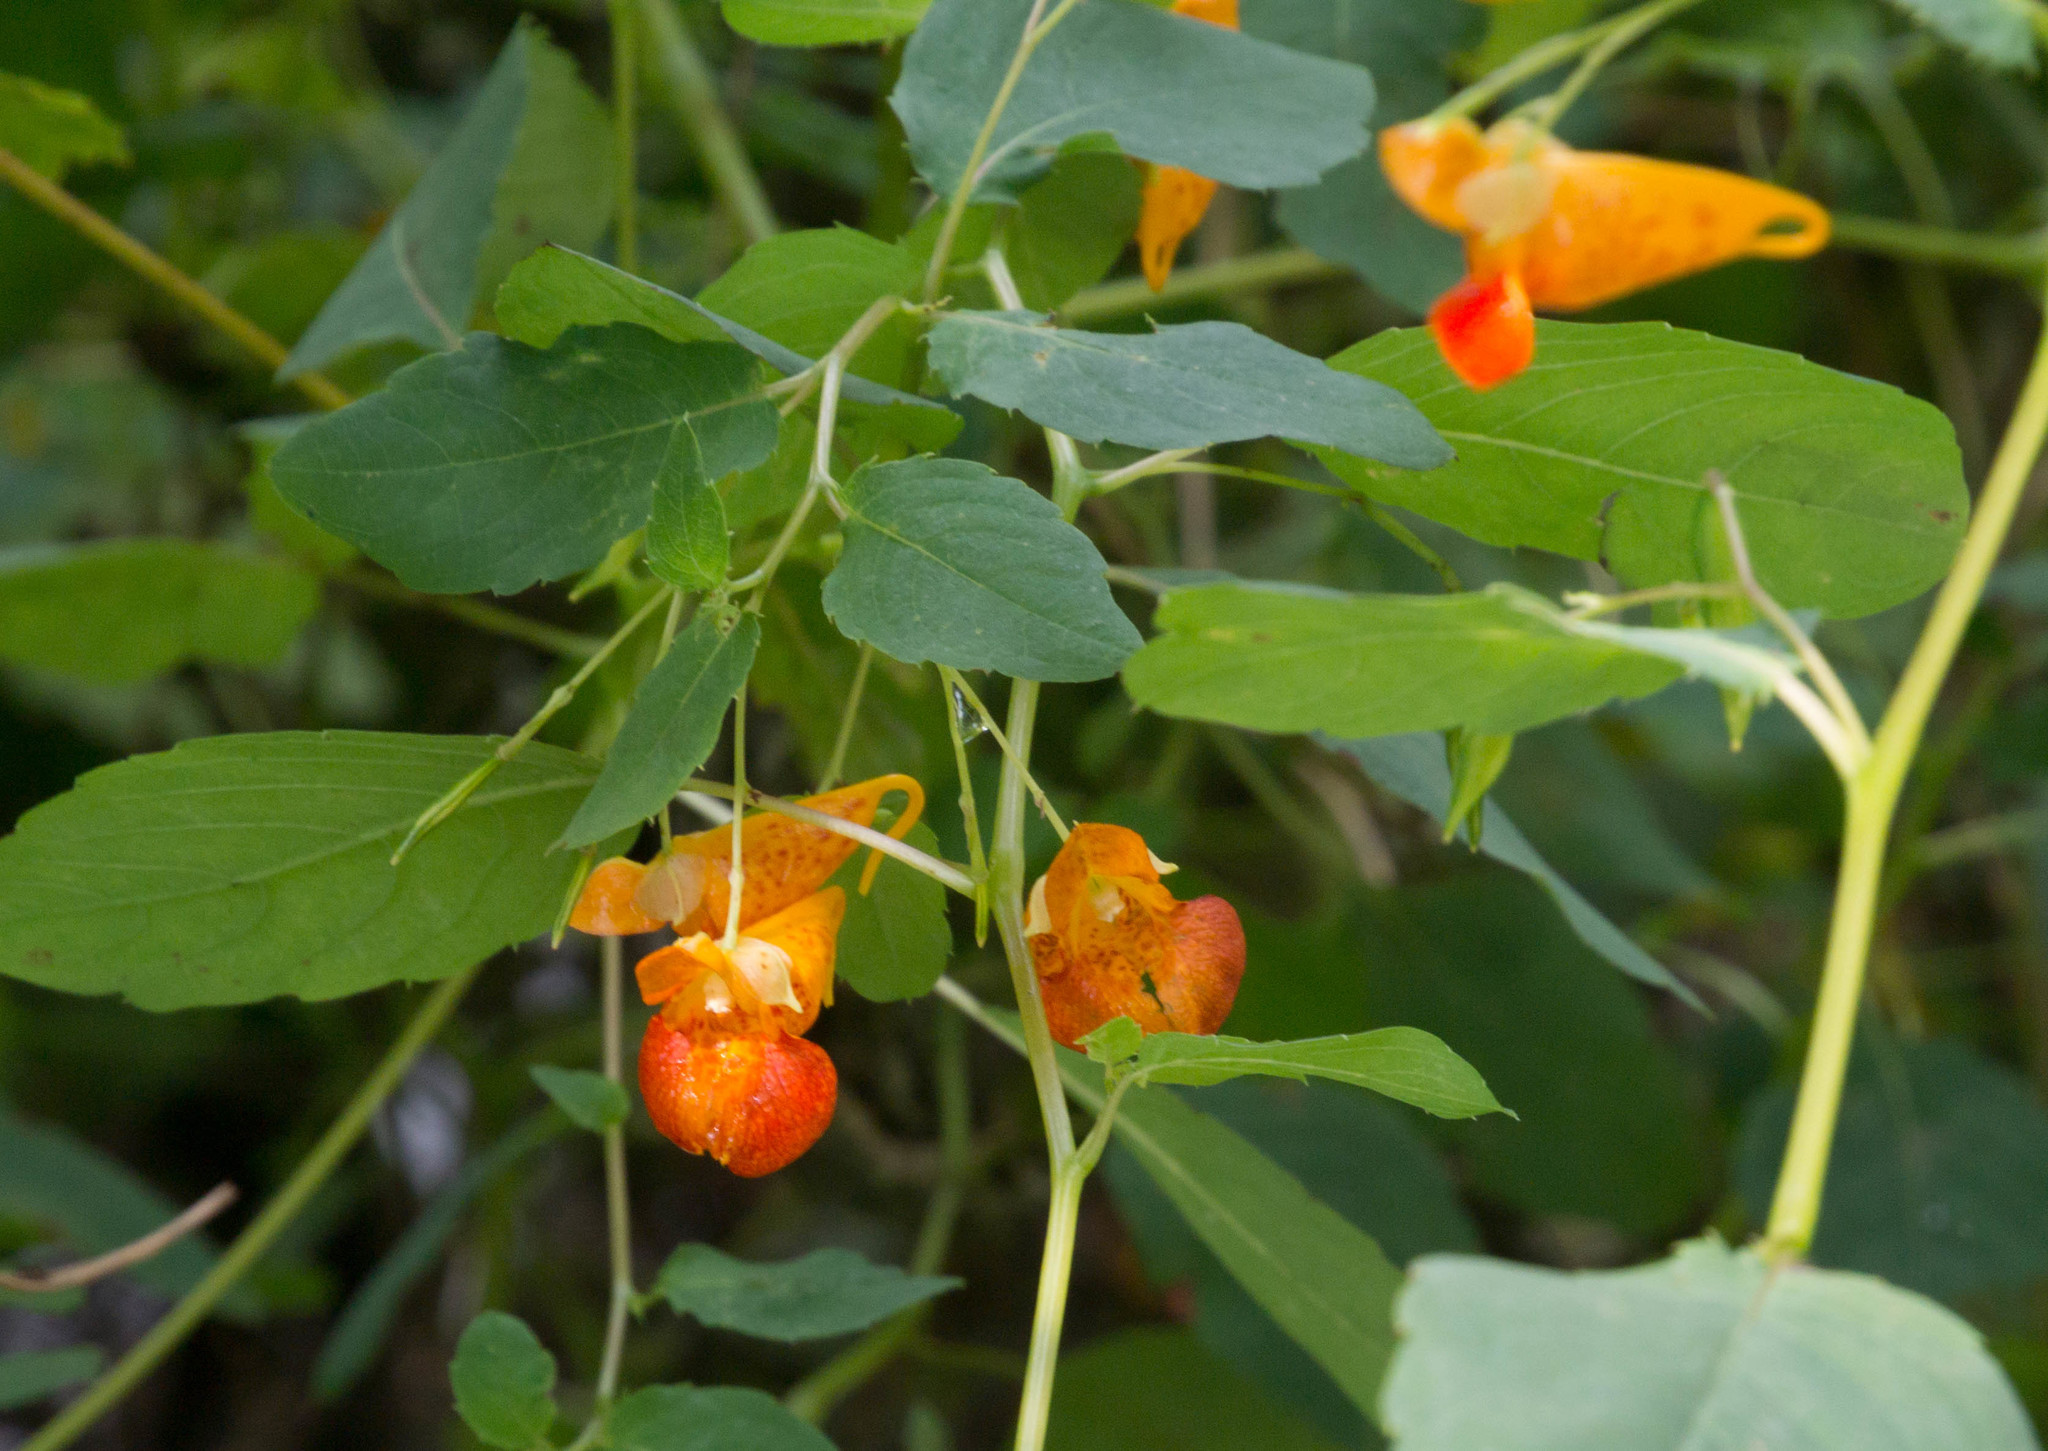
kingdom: Plantae
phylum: Tracheophyta
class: Magnoliopsida
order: Ericales
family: Balsaminaceae
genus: Impatiens
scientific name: Impatiens capensis
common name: Orange balsam
